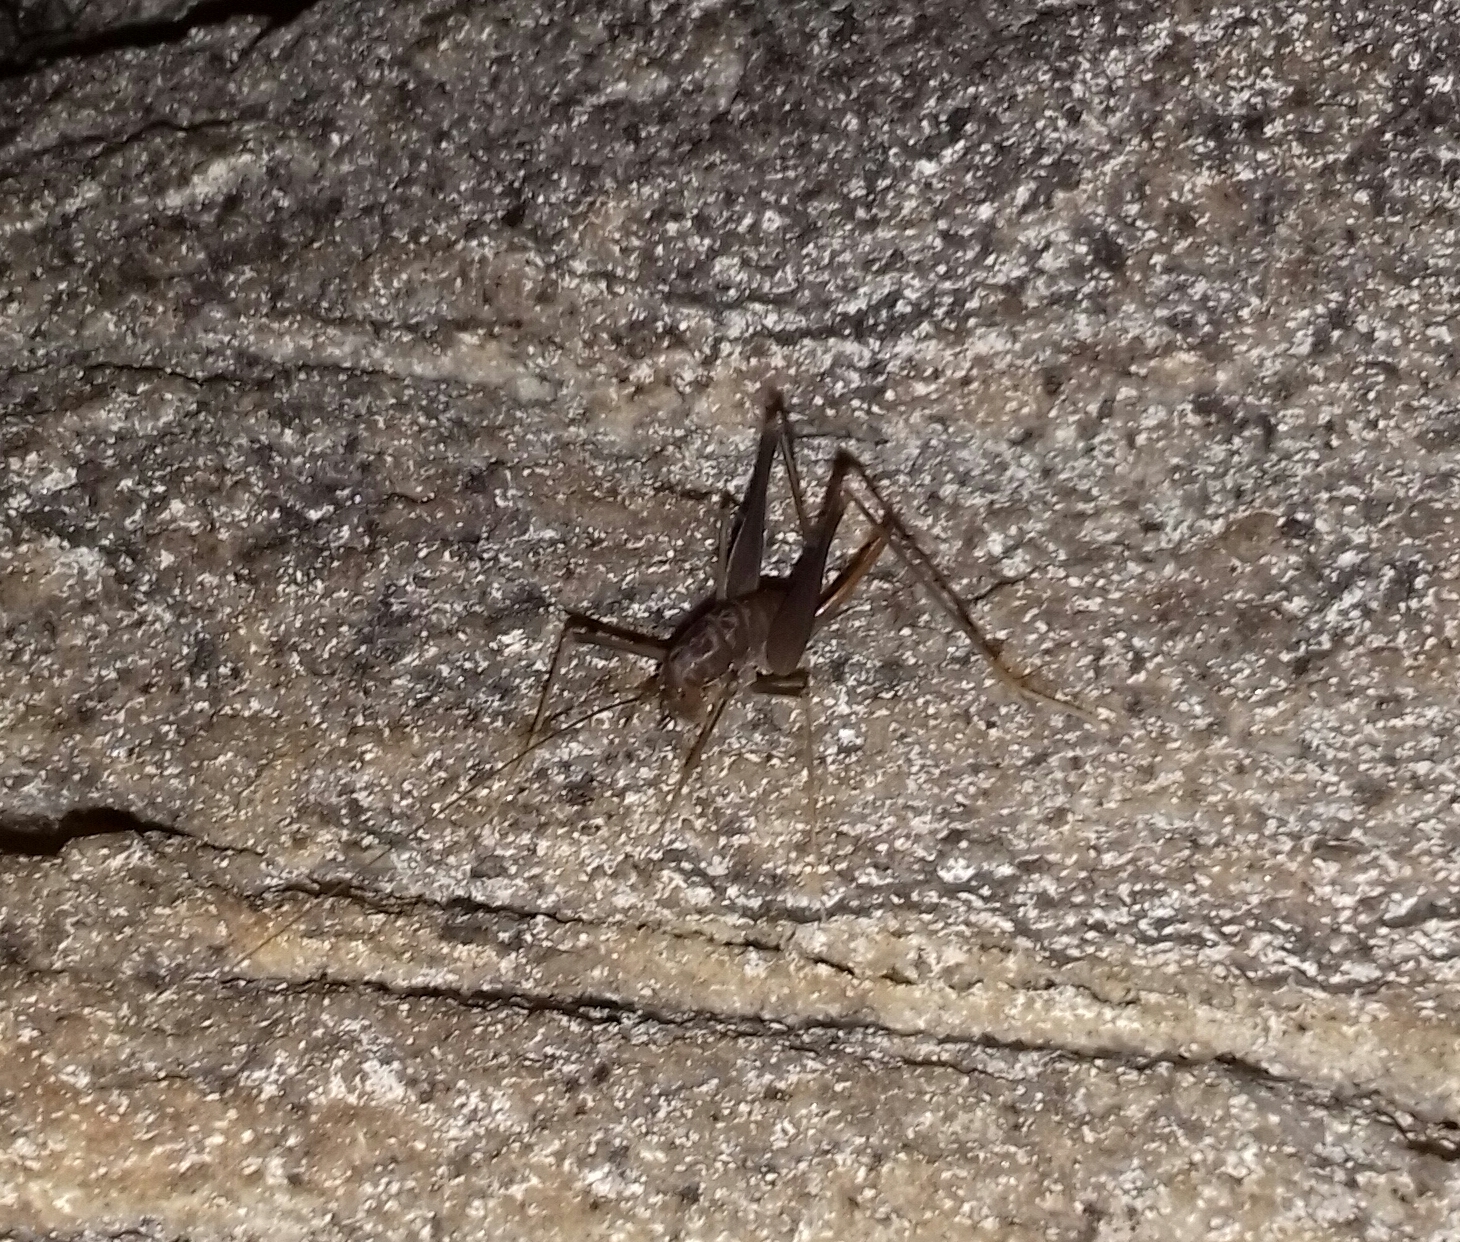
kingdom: Animalia
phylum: Arthropoda
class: Insecta
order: Orthoptera
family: Rhaphidophoridae
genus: Spelaeiacris
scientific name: Spelaeiacris tabulae
